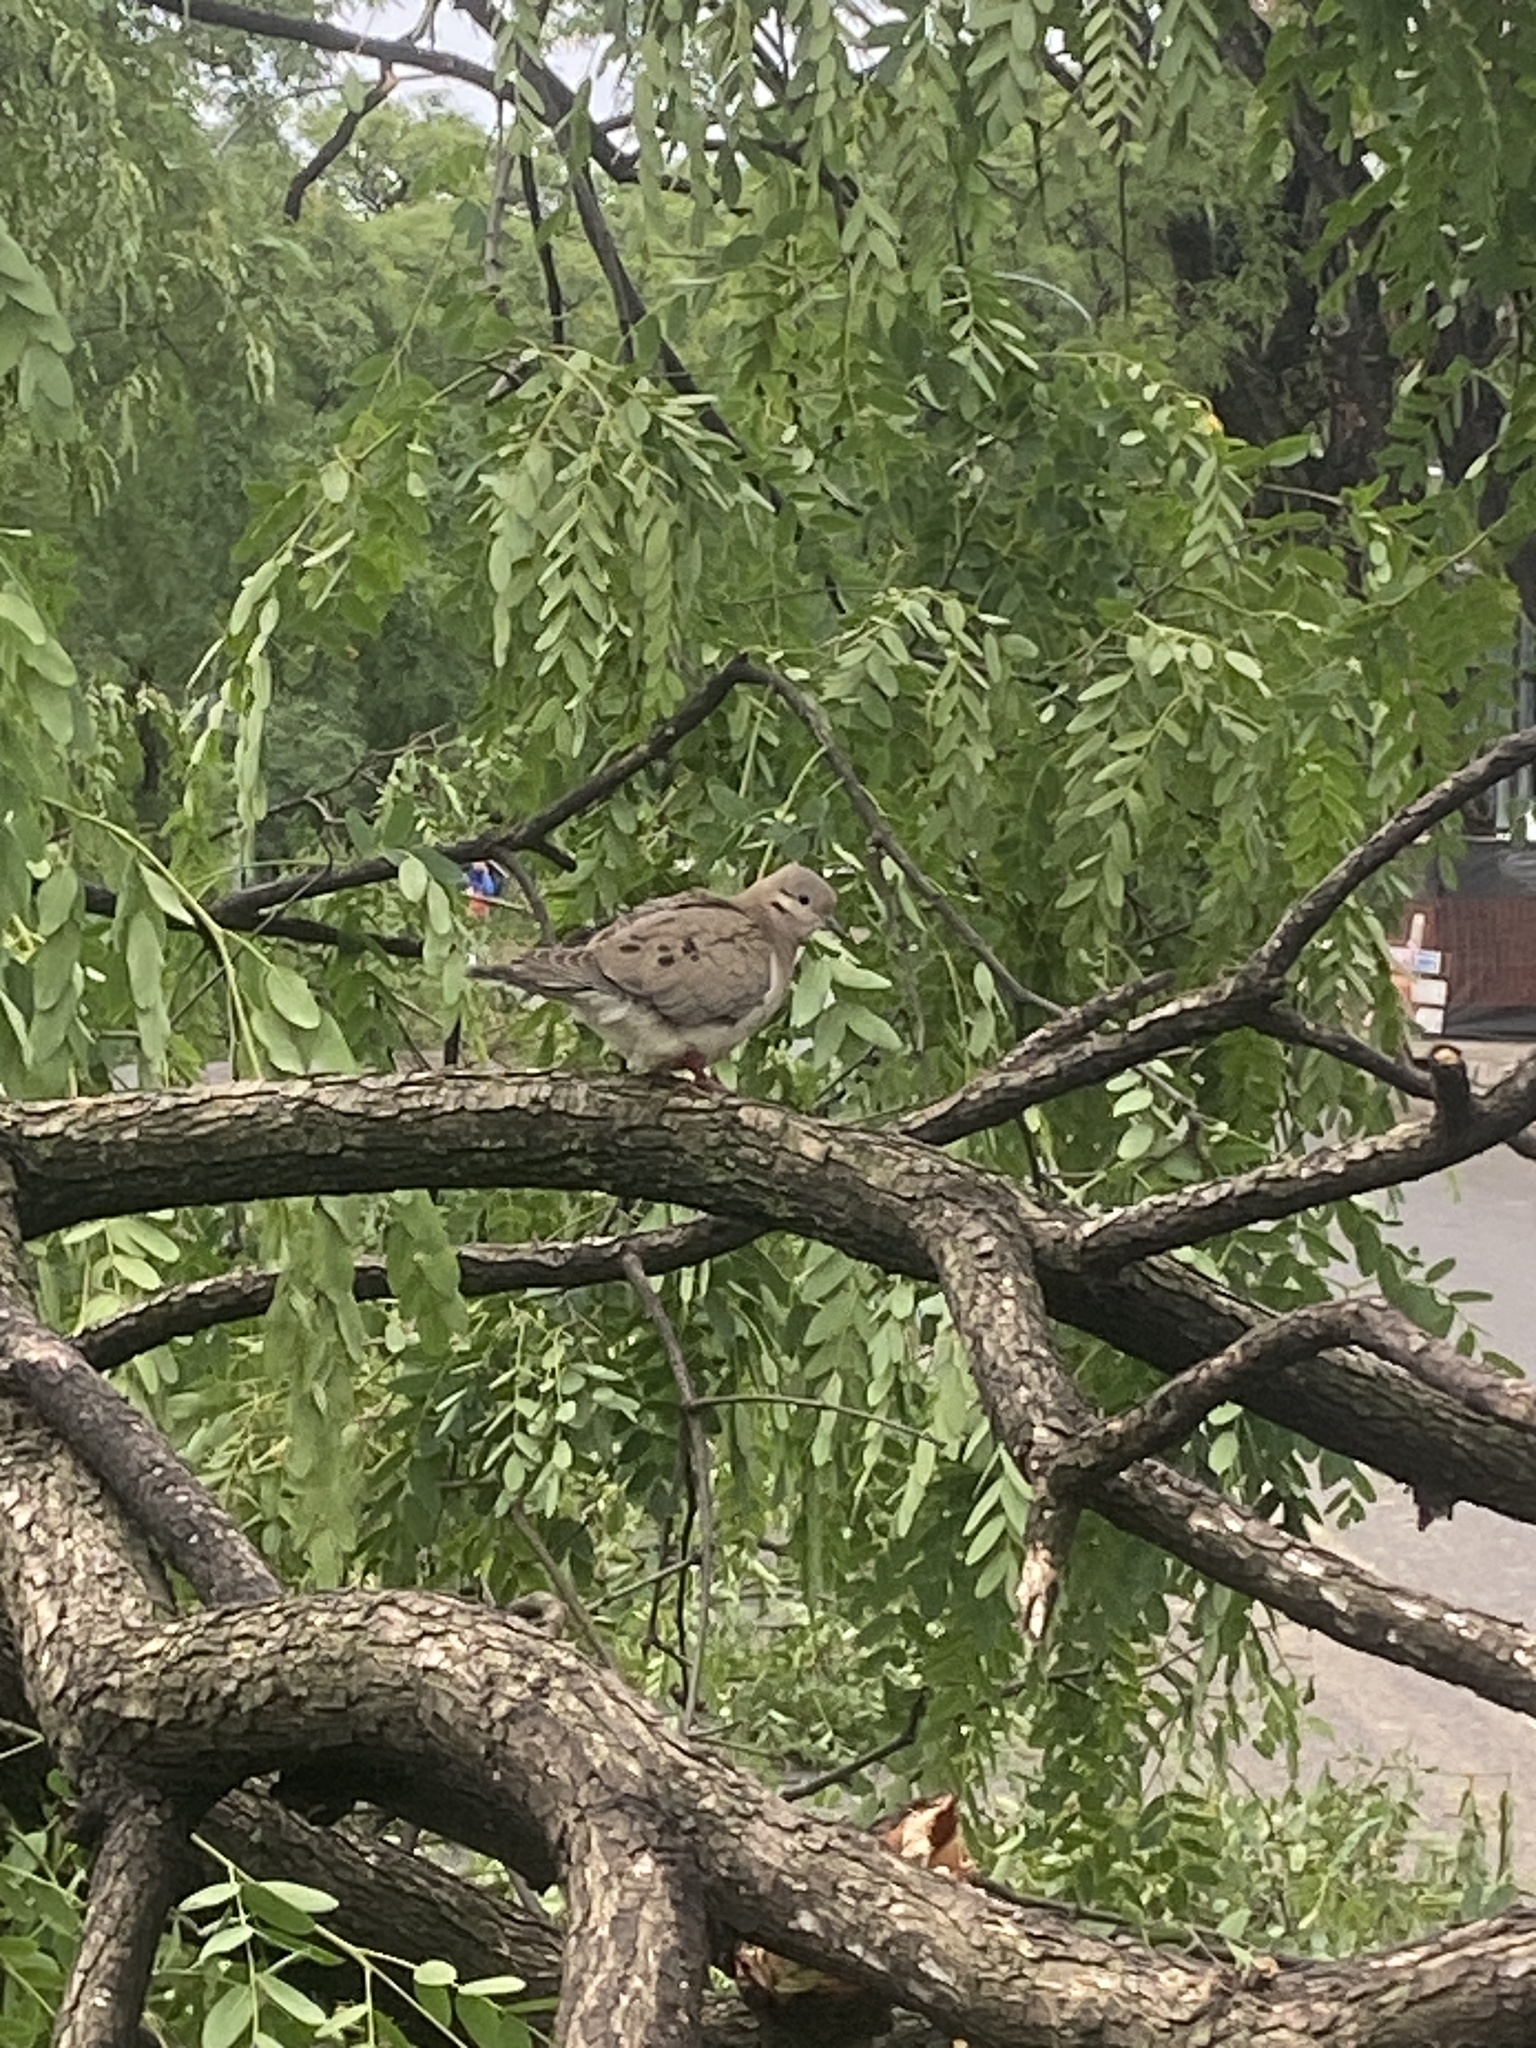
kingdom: Animalia
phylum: Chordata
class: Aves
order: Columbiformes
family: Columbidae
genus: Zenaida
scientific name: Zenaida auriculata
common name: Eared dove
